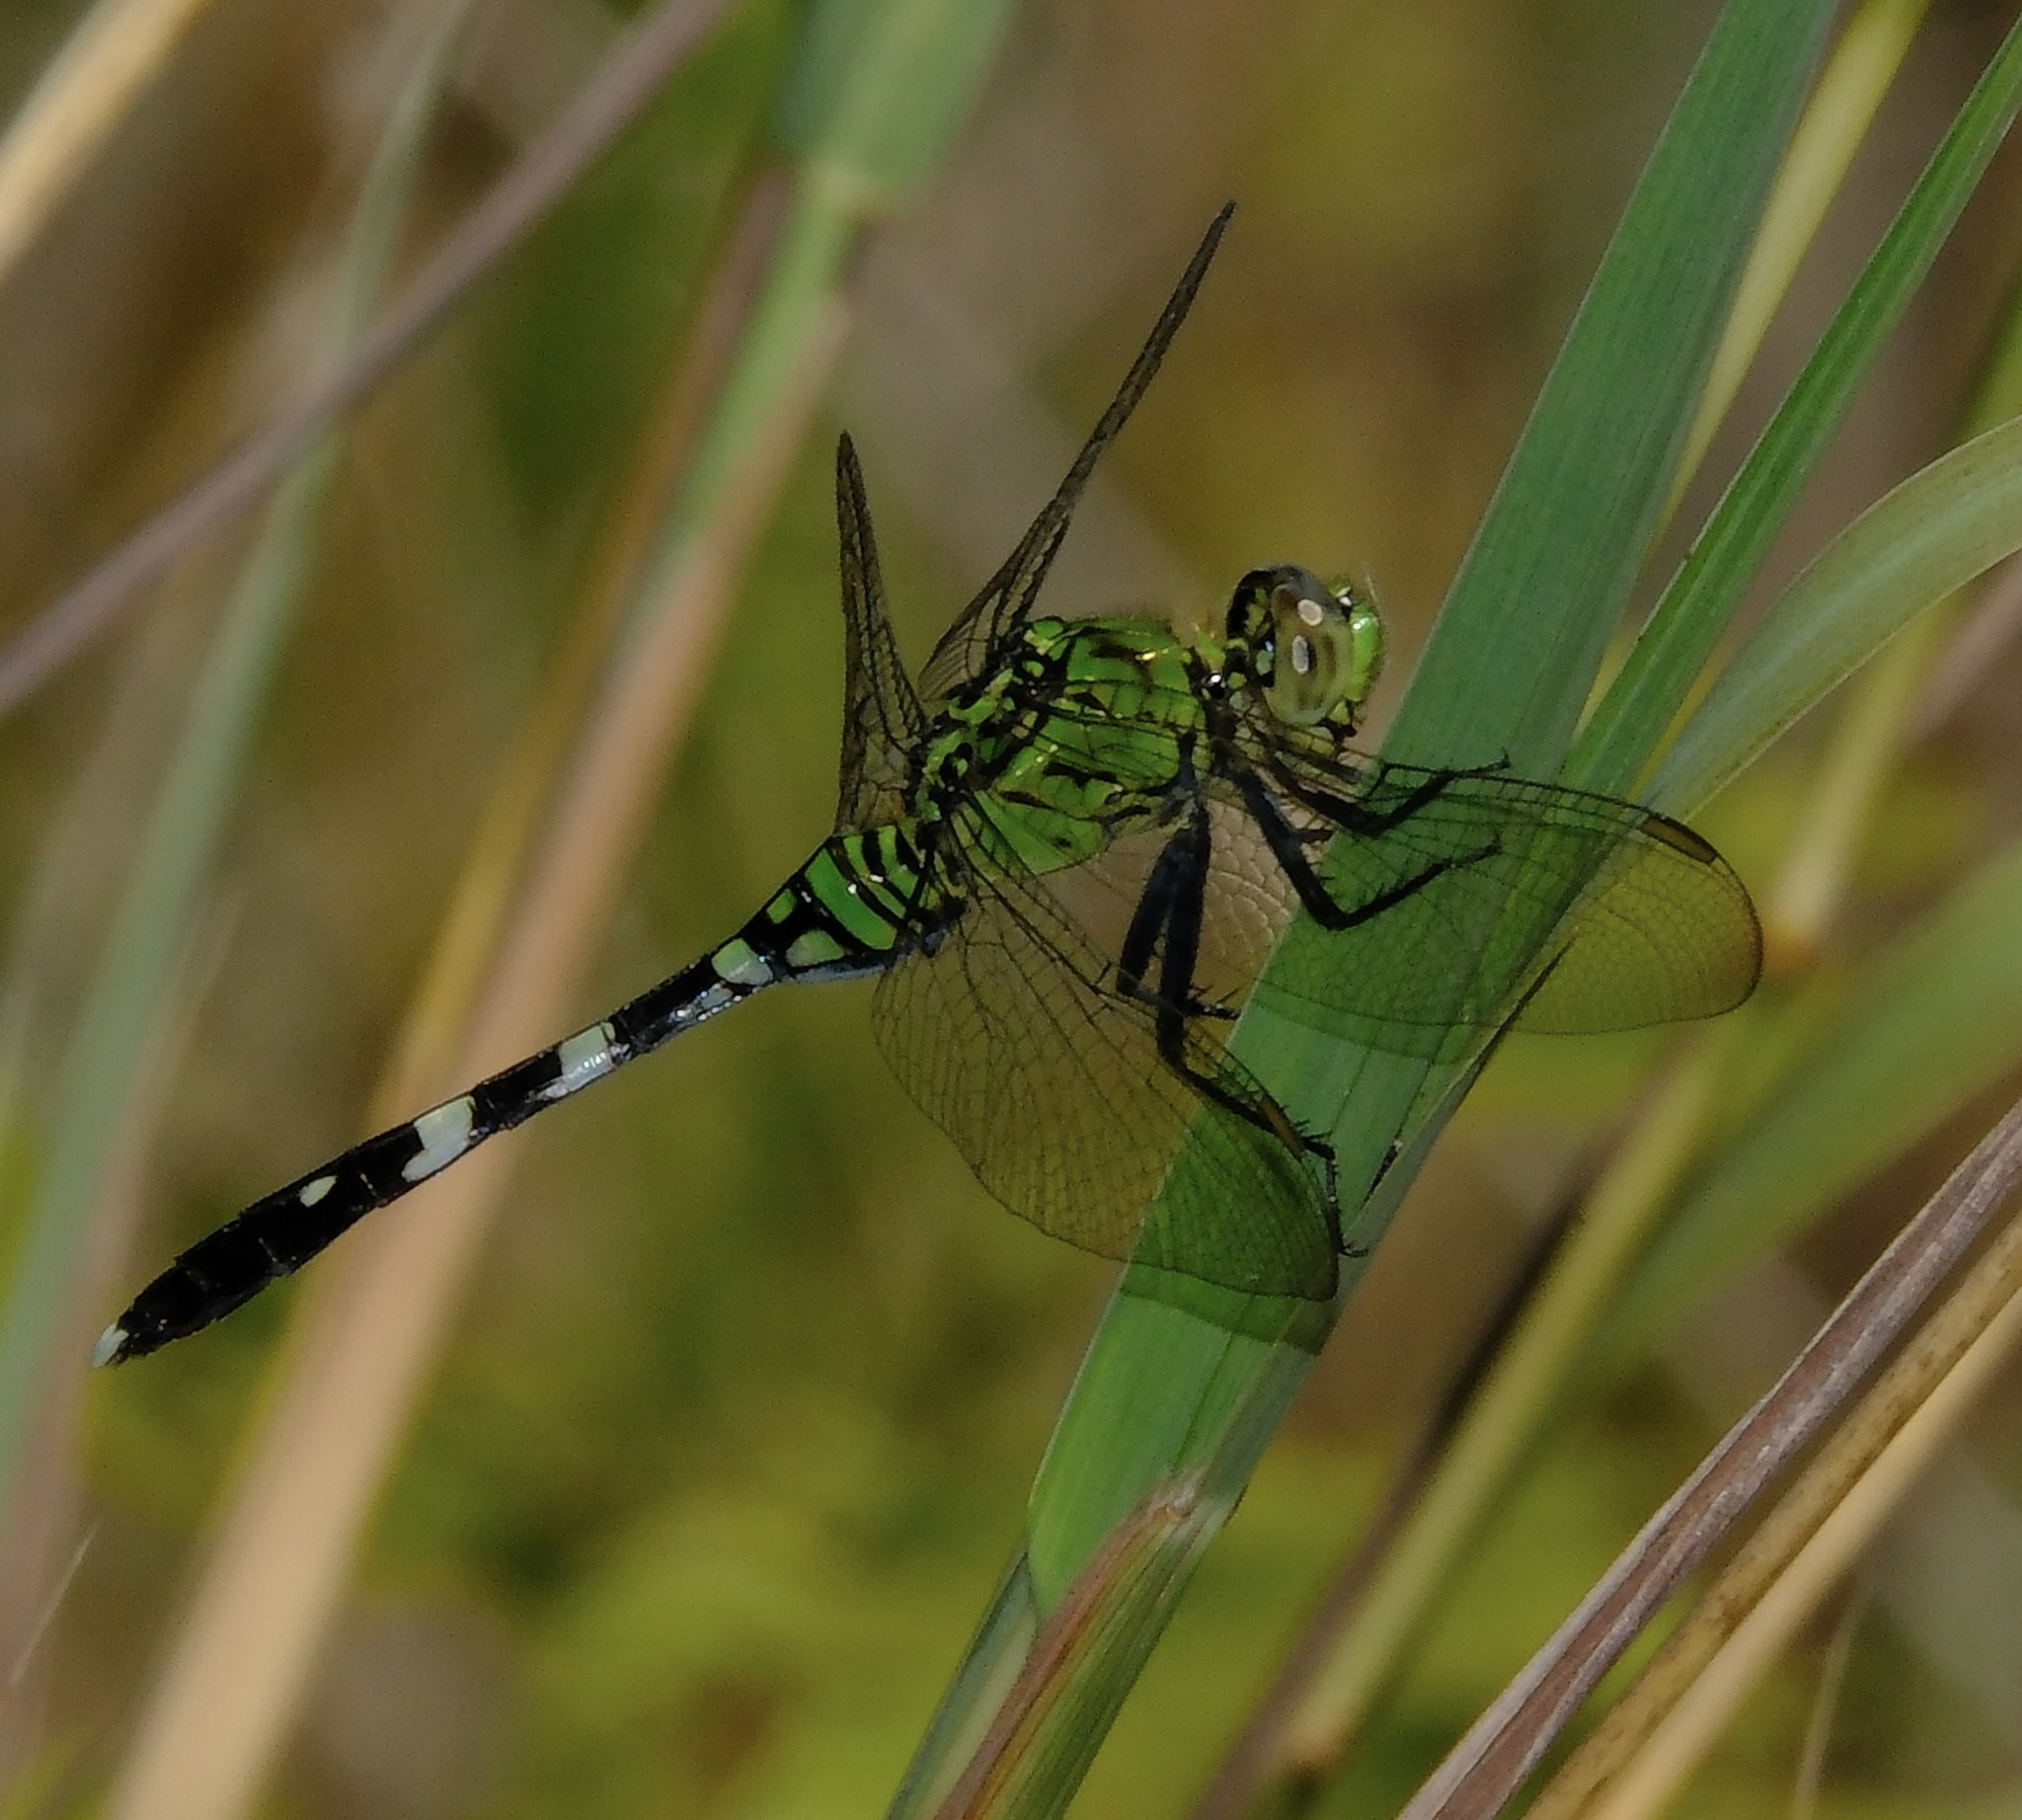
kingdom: Animalia
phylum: Arthropoda
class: Insecta
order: Odonata
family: Libellulidae
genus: Erythemis
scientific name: Erythemis simplicicollis
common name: Eastern pondhawk
